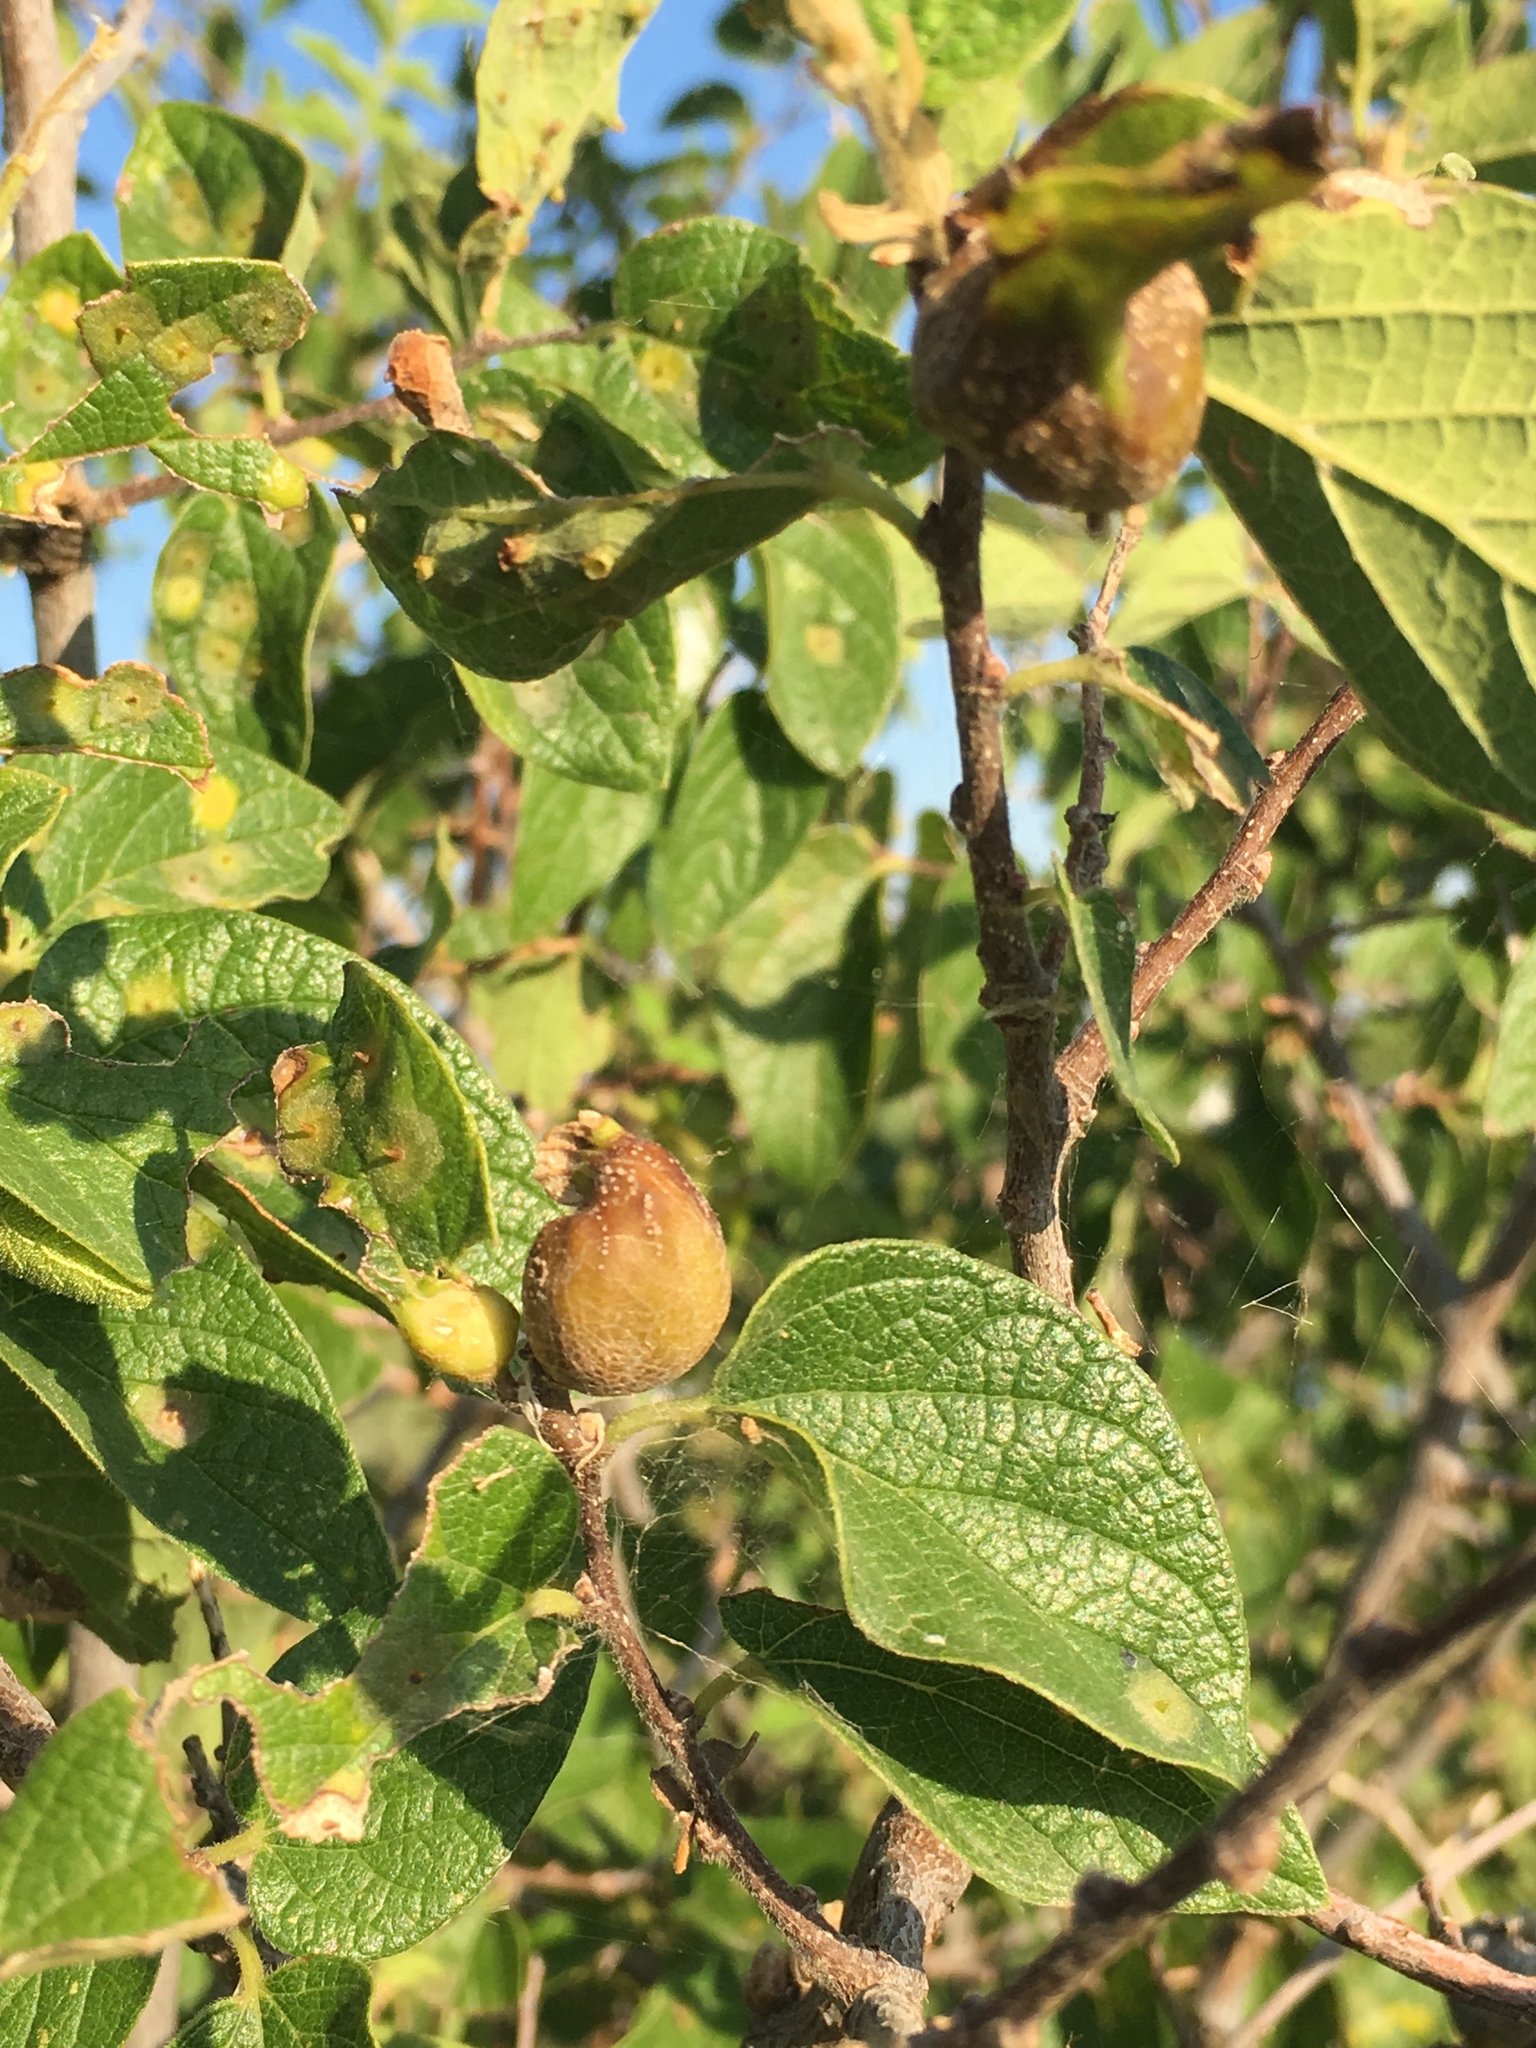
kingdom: Animalia
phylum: Arthropoda
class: Insecta
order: Hemiptera
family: Aphalaridae
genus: Pachypsylla
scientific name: Pachypsylla venusta
